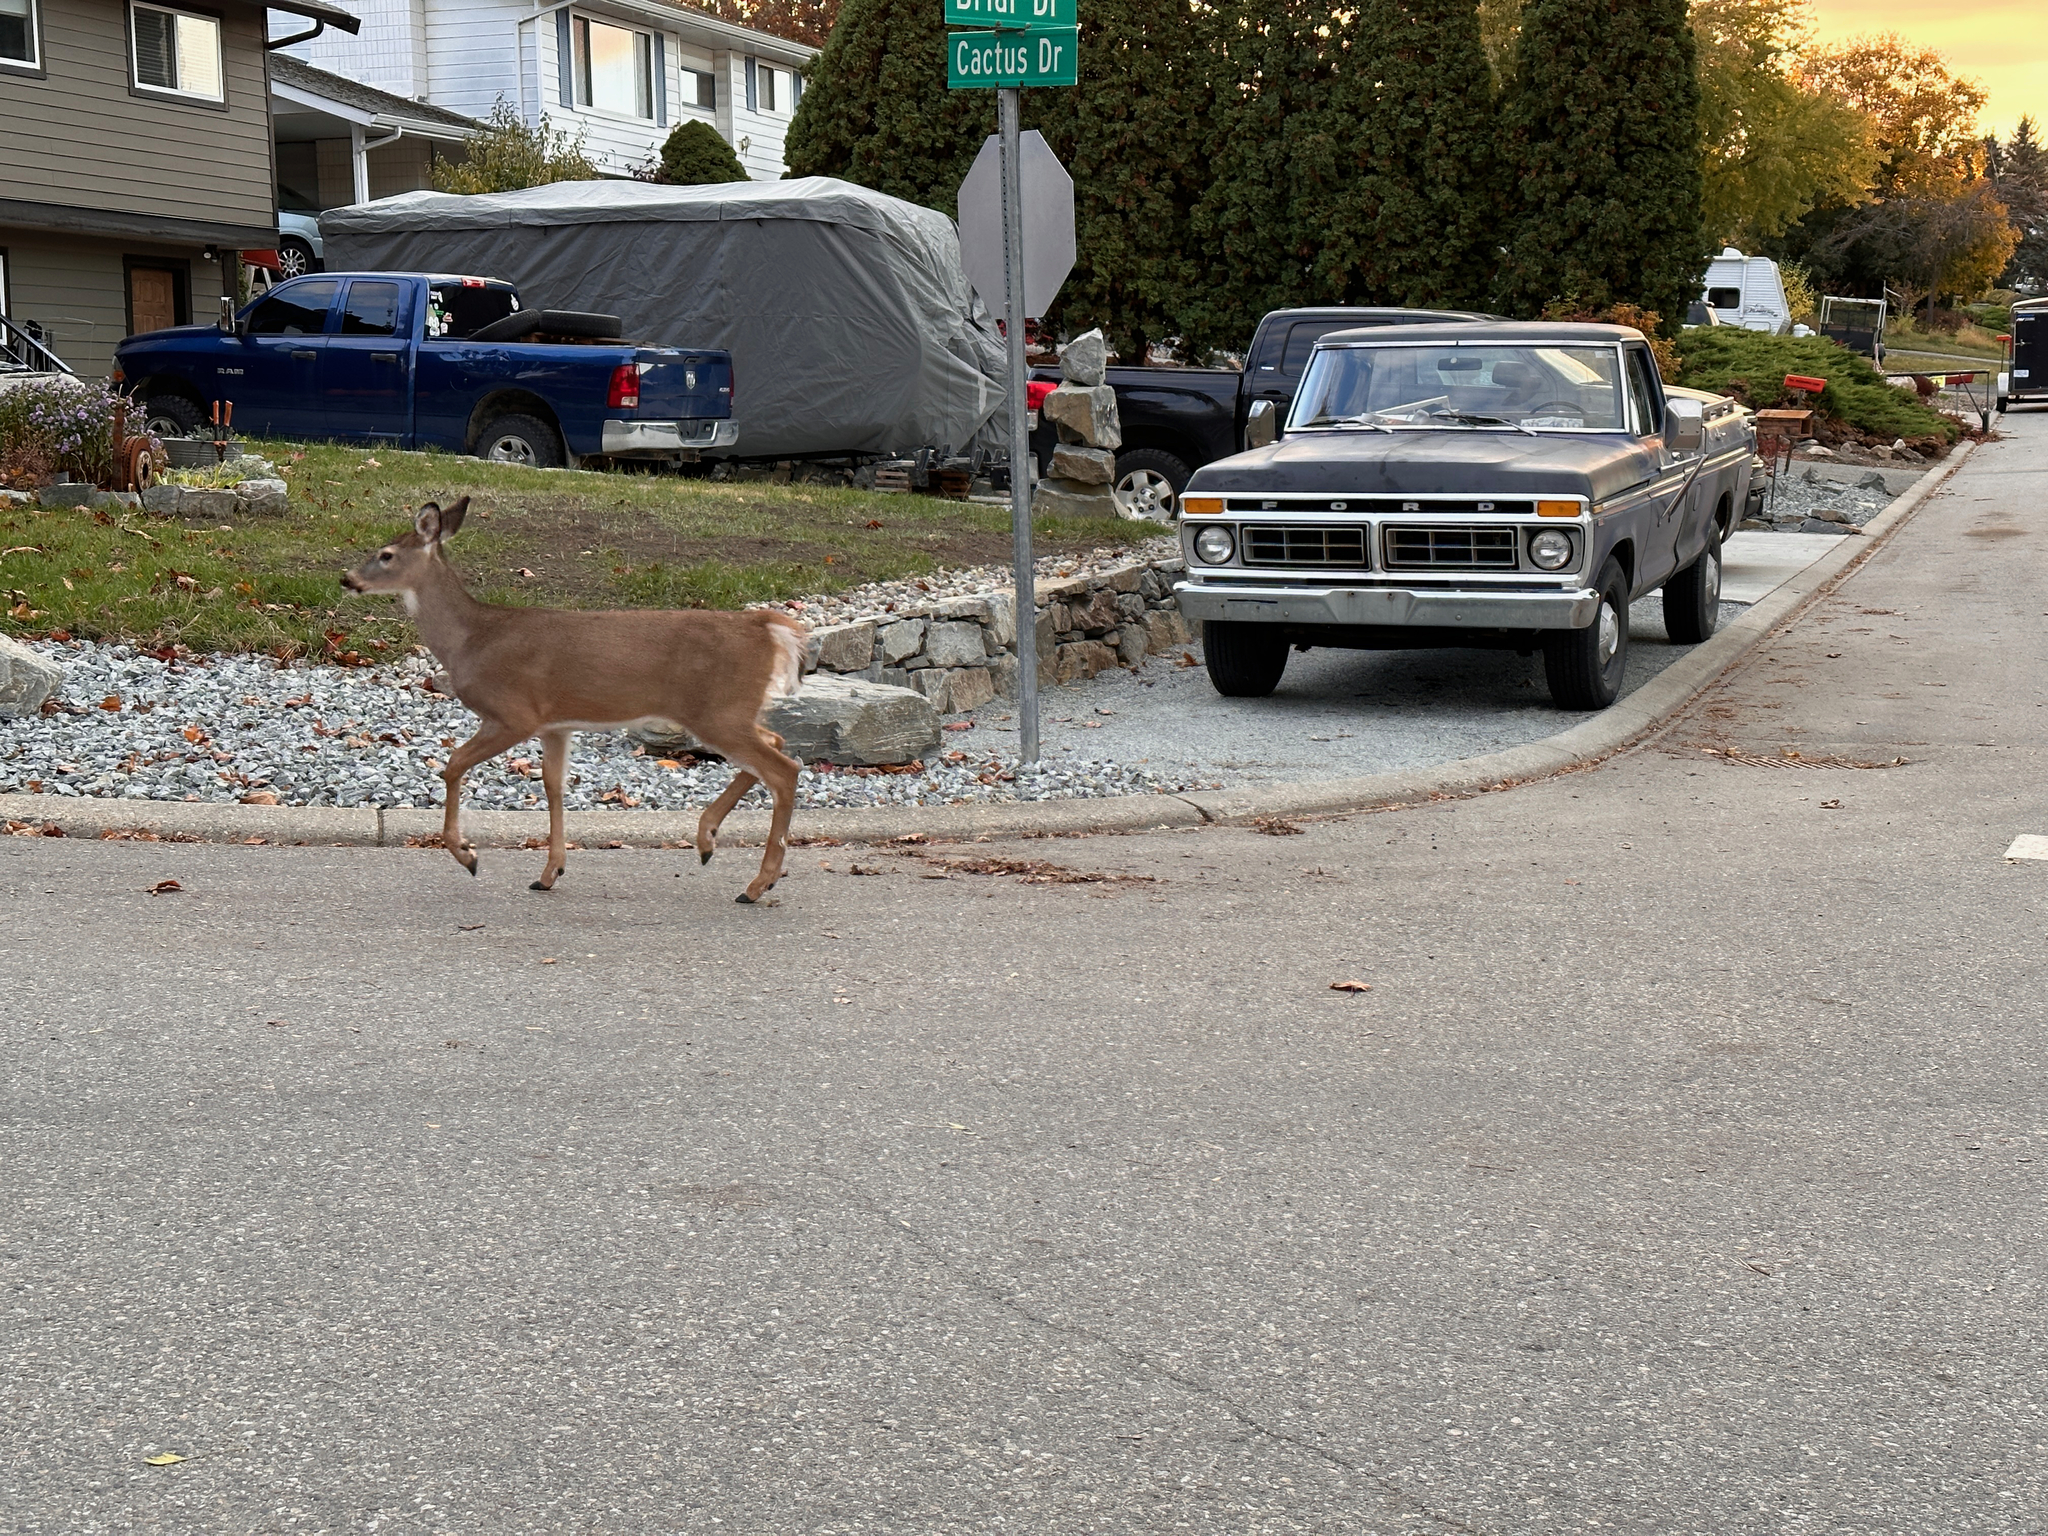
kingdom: Animalia
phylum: Chordata
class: Mammalia
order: Artiodactyla
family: Cervidae
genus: Odocoileus
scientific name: Odocoileus virginianus
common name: White-tailed deer
